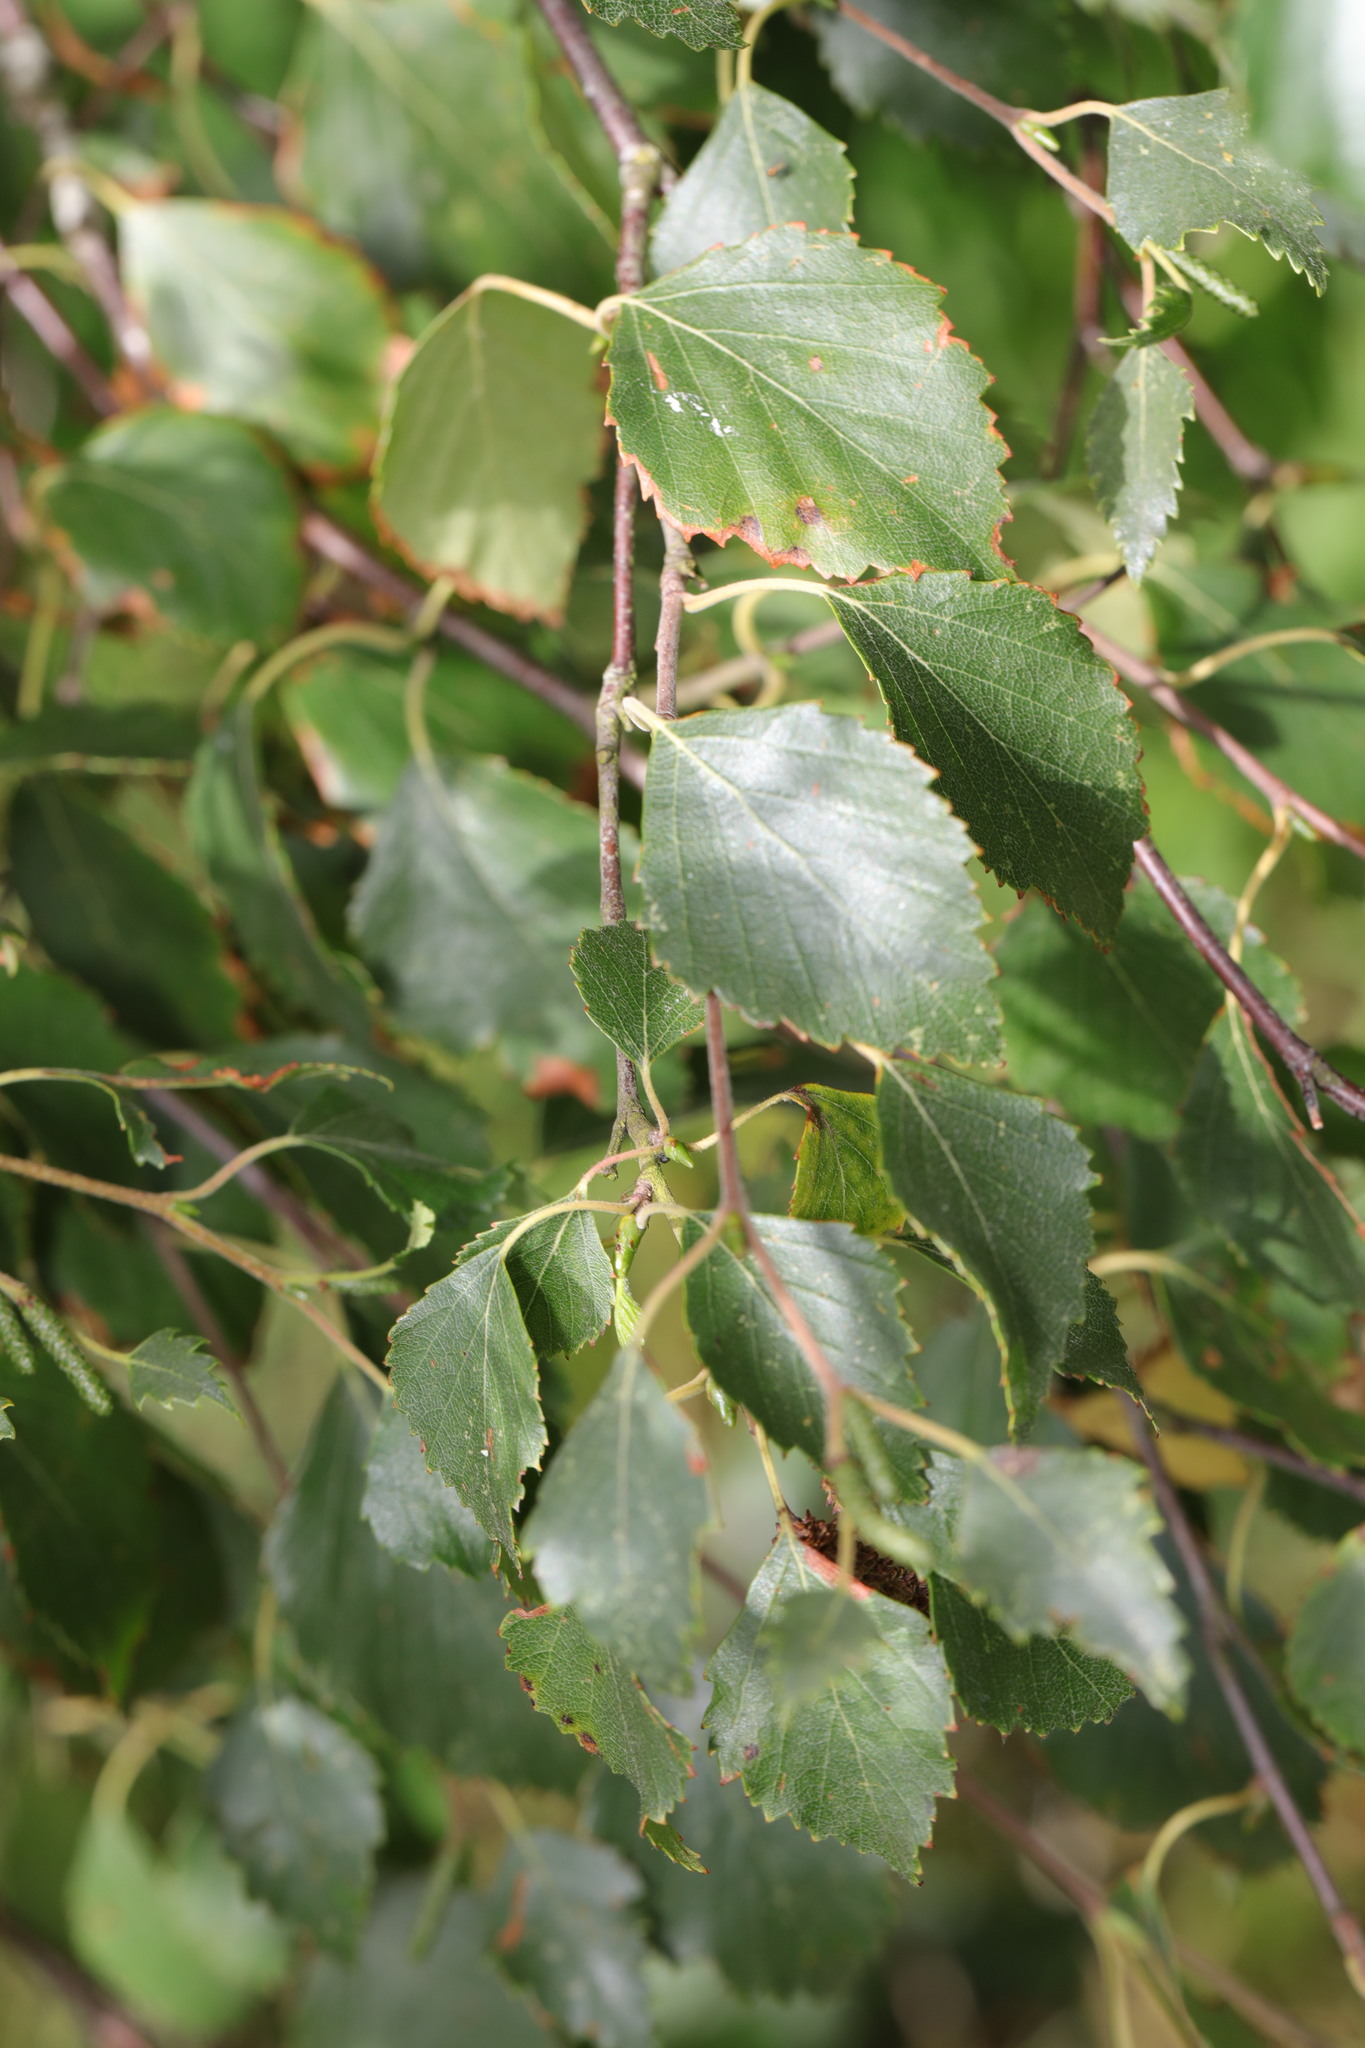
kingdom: Plantae
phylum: Tracheophyta
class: Magnoliopsida
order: Fagales
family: Betulaceae
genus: Betula
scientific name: Betula pendula
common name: Silver birch
